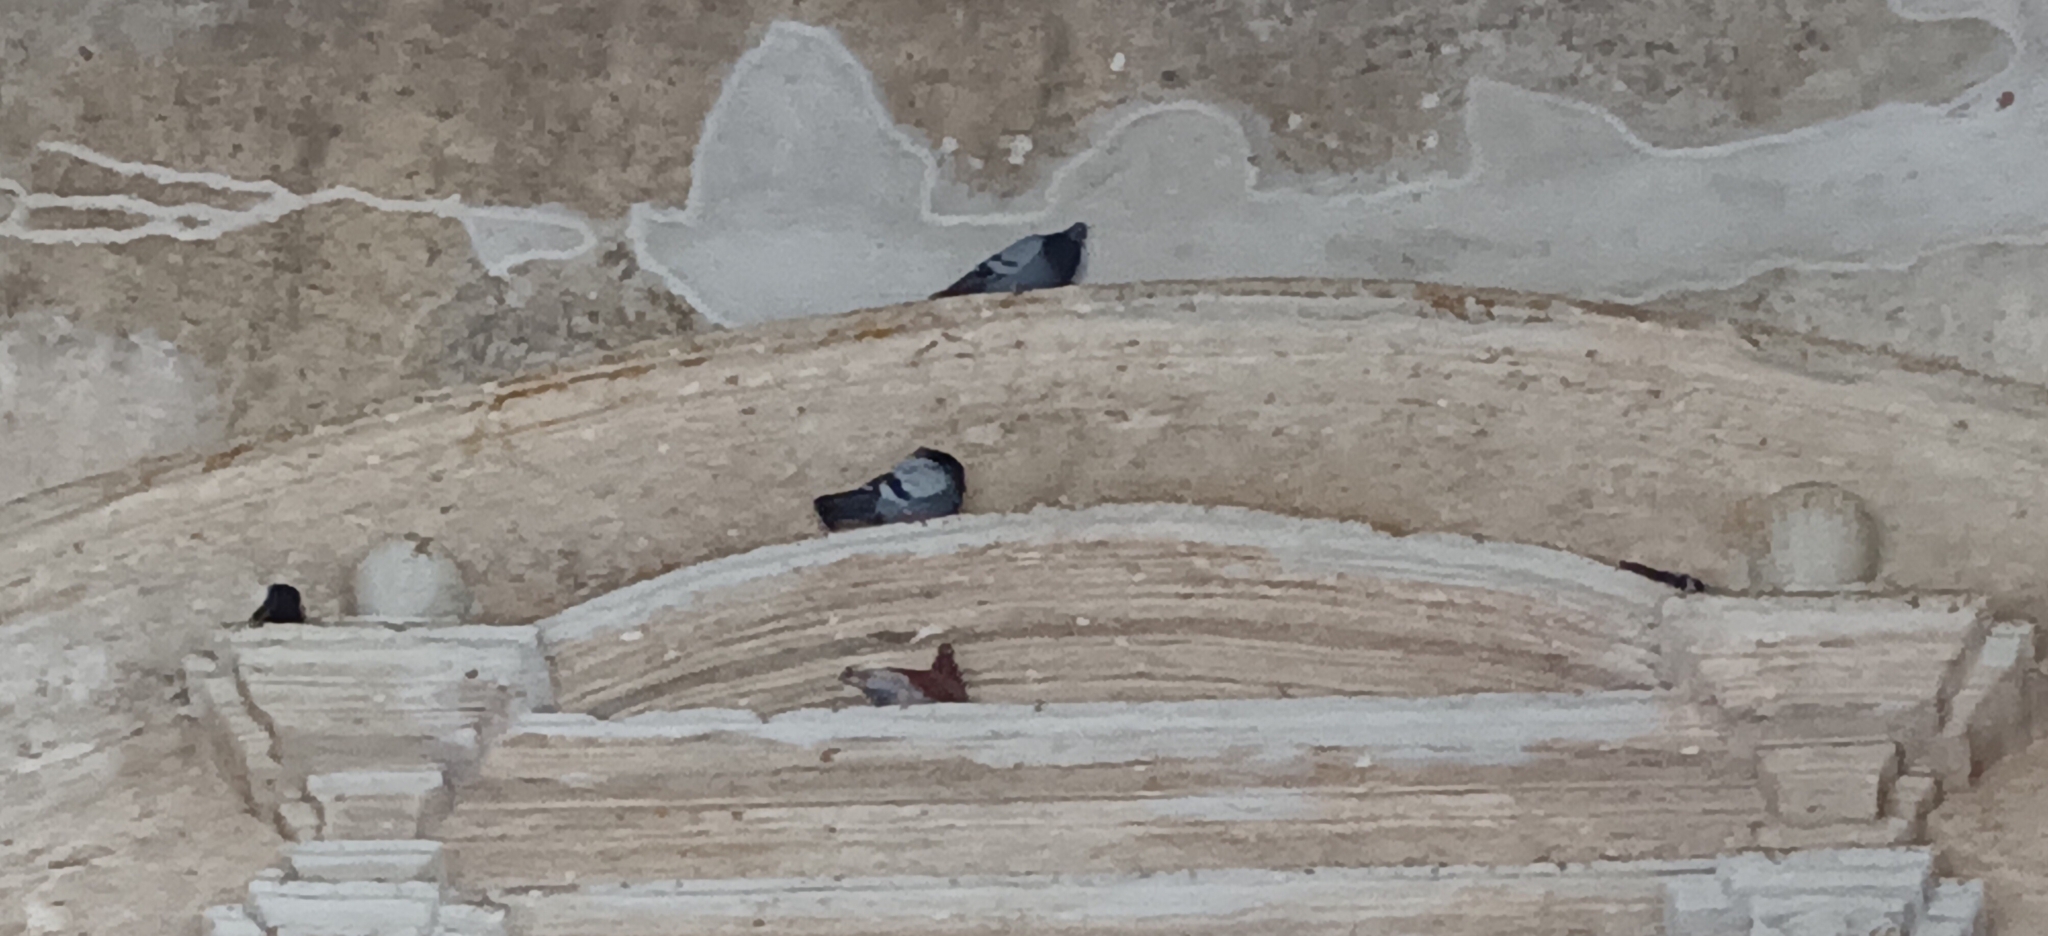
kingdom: Animalia
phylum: Chordata
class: Aves
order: Columbiformes
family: Columbidae
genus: Columba
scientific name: Columba livia
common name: Rock pigeon
